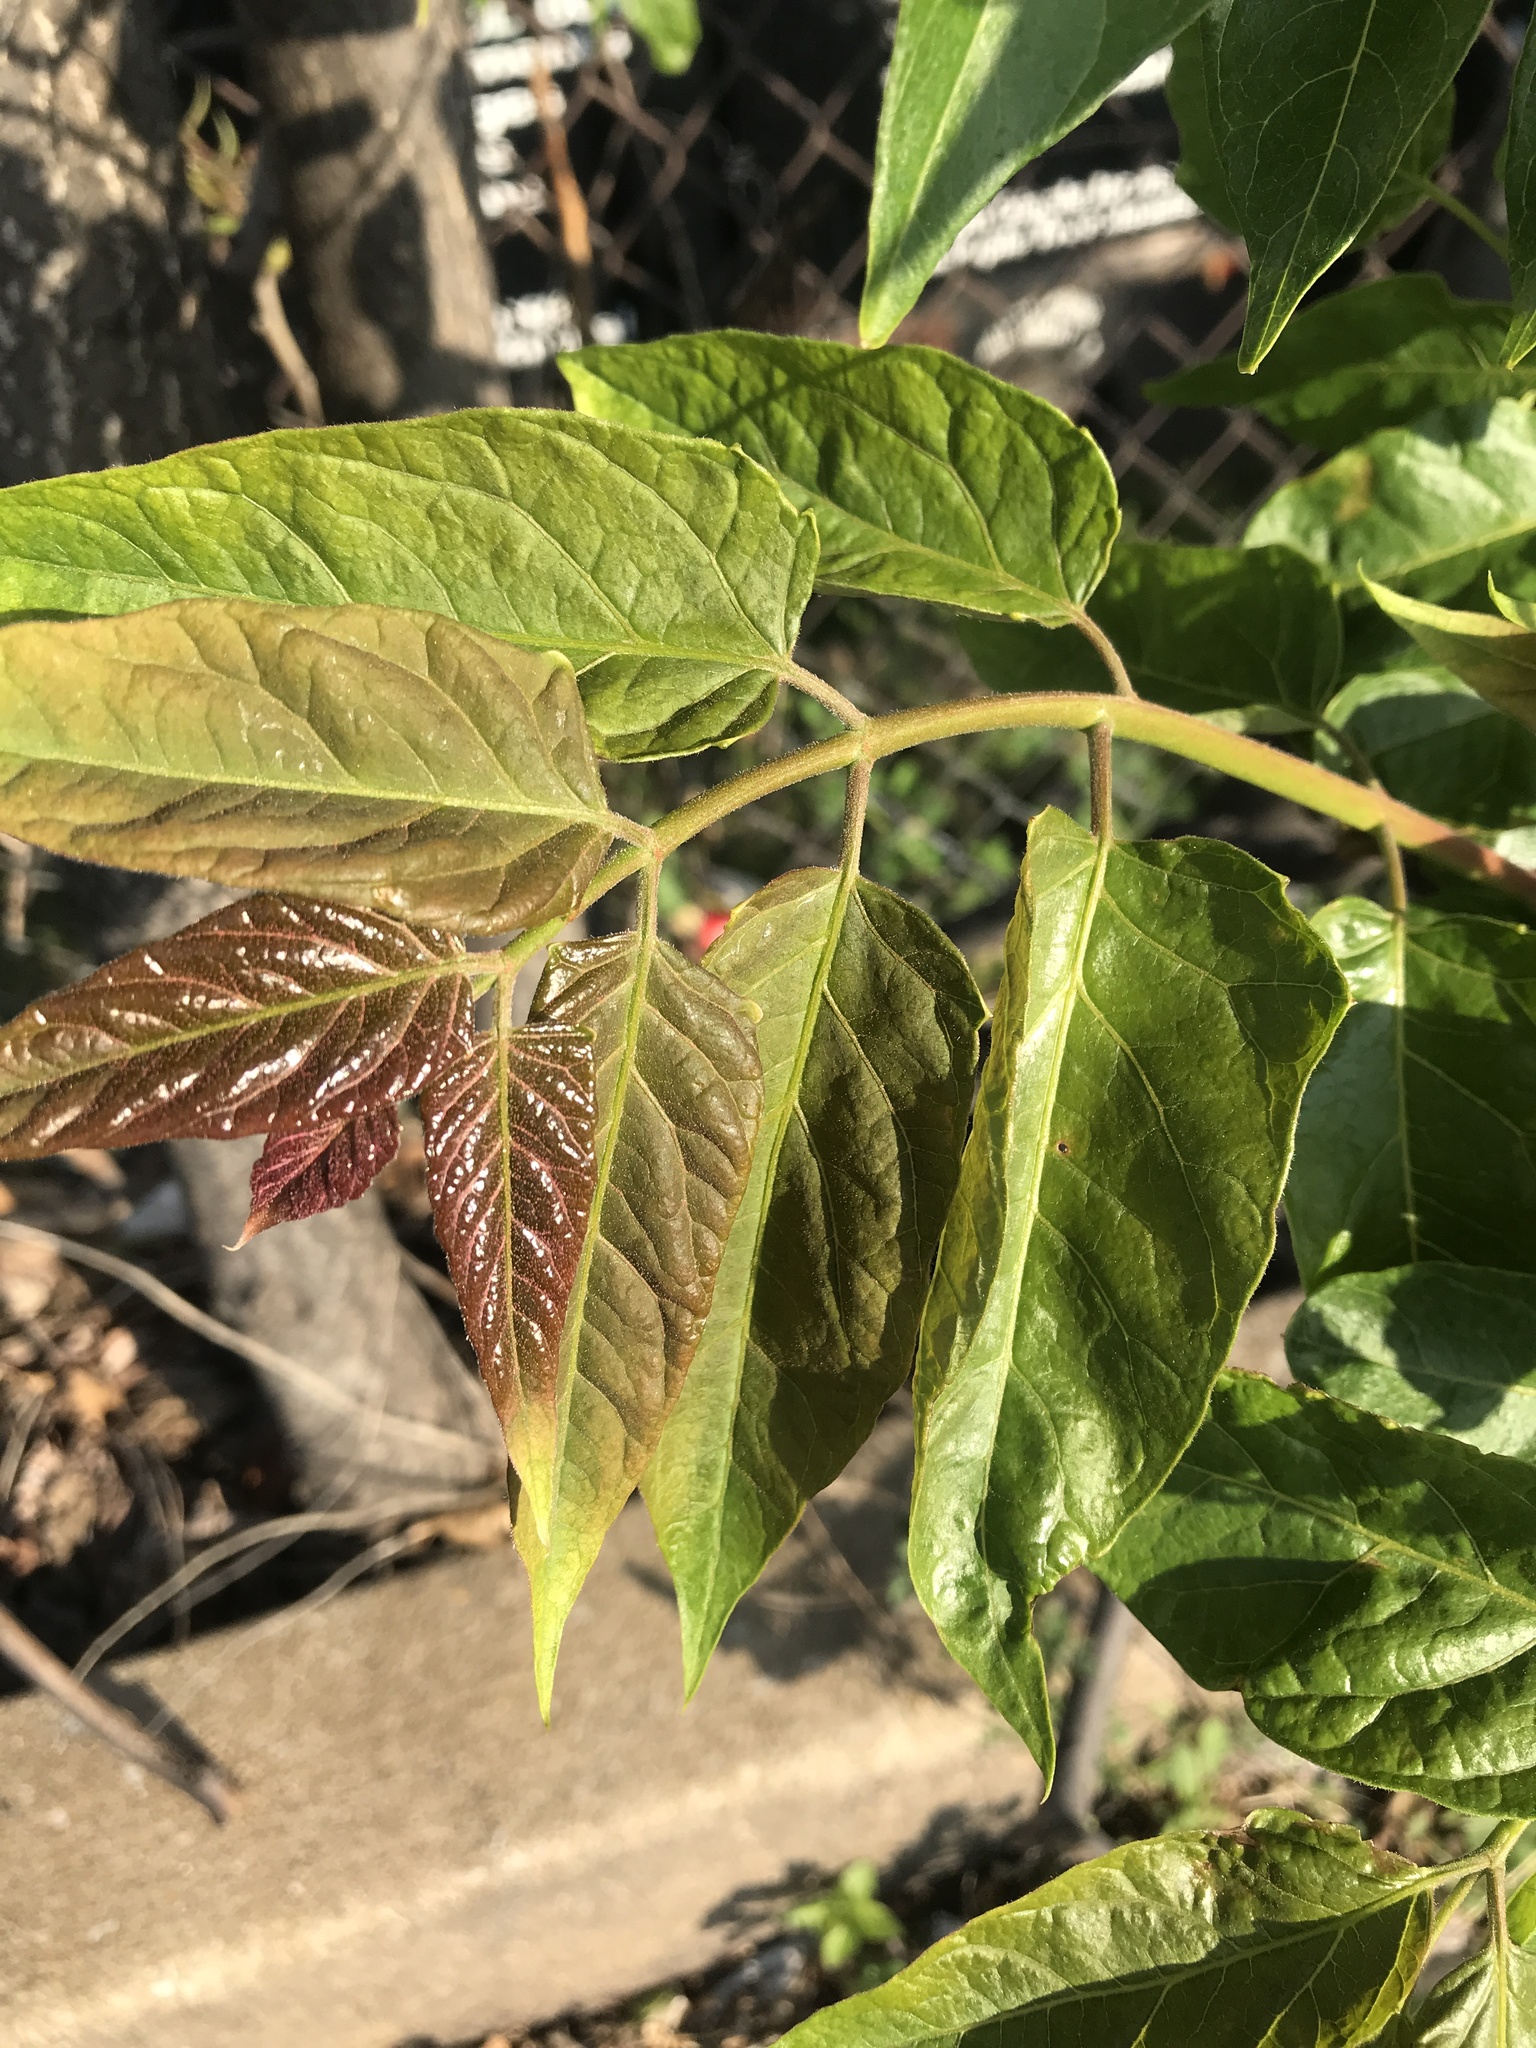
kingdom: Plantae
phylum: Tracheophyta
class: Magnoliopsida
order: Sapindales
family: Simaroubaceae
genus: Ailanthus
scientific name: Ailanthus altissima
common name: Tree-of-heaven
